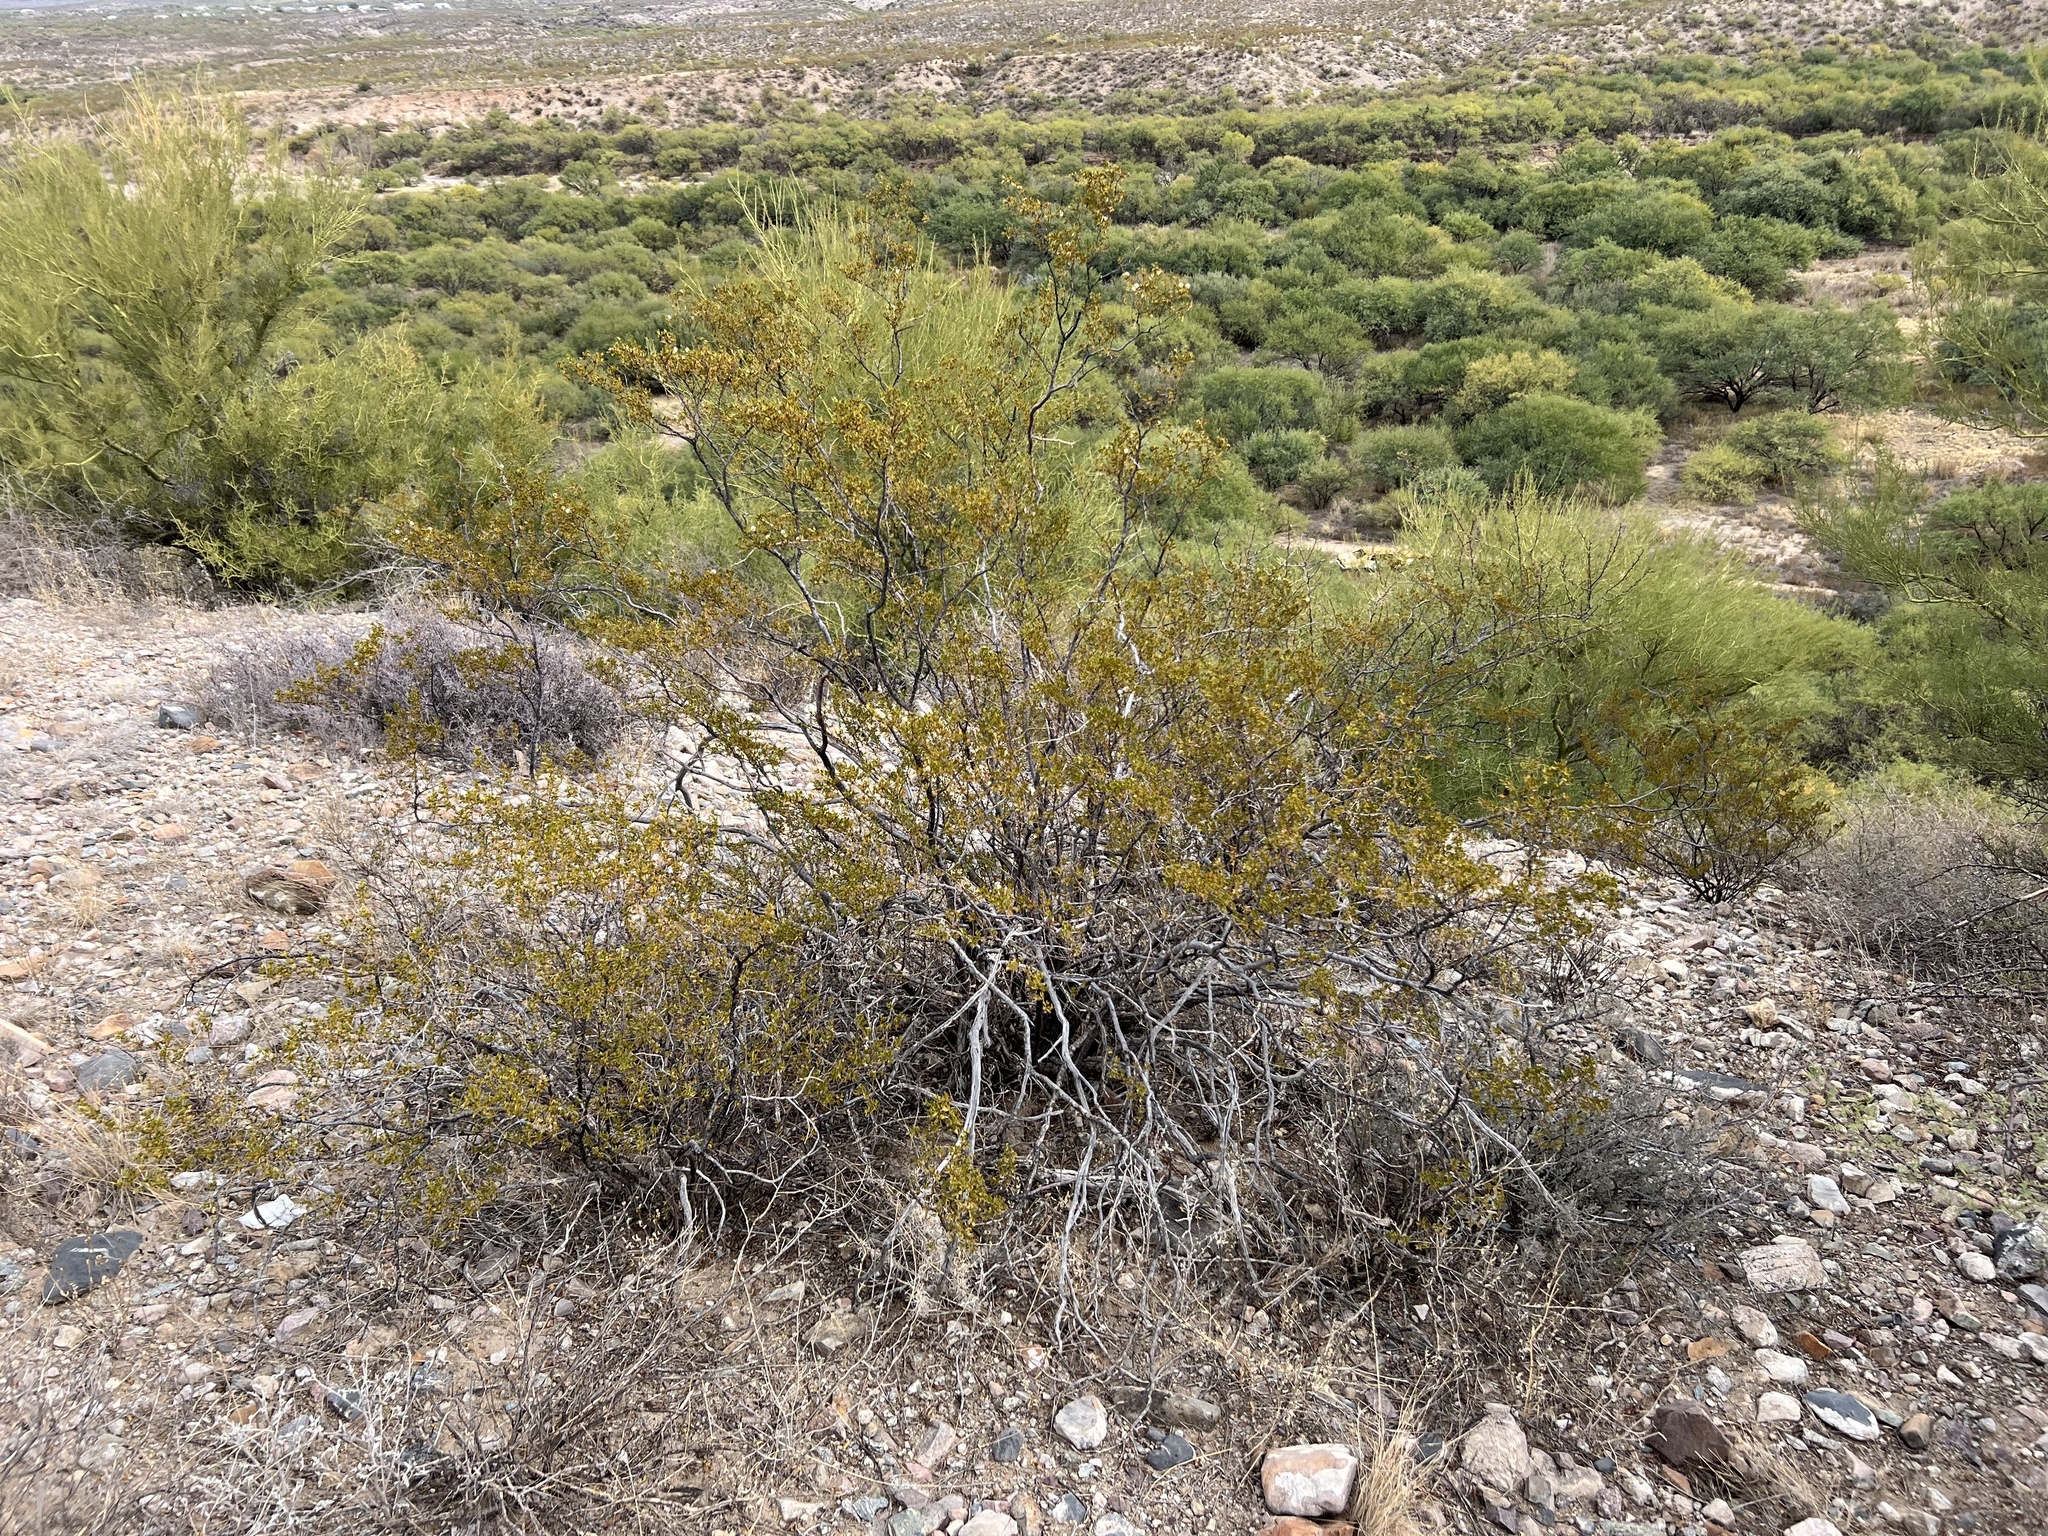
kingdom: Plantae
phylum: Tracheophyta
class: Magnoliopsida
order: Zygophyllales
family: Zygophyllaceae
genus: Larrea
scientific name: Larrea tridentata
